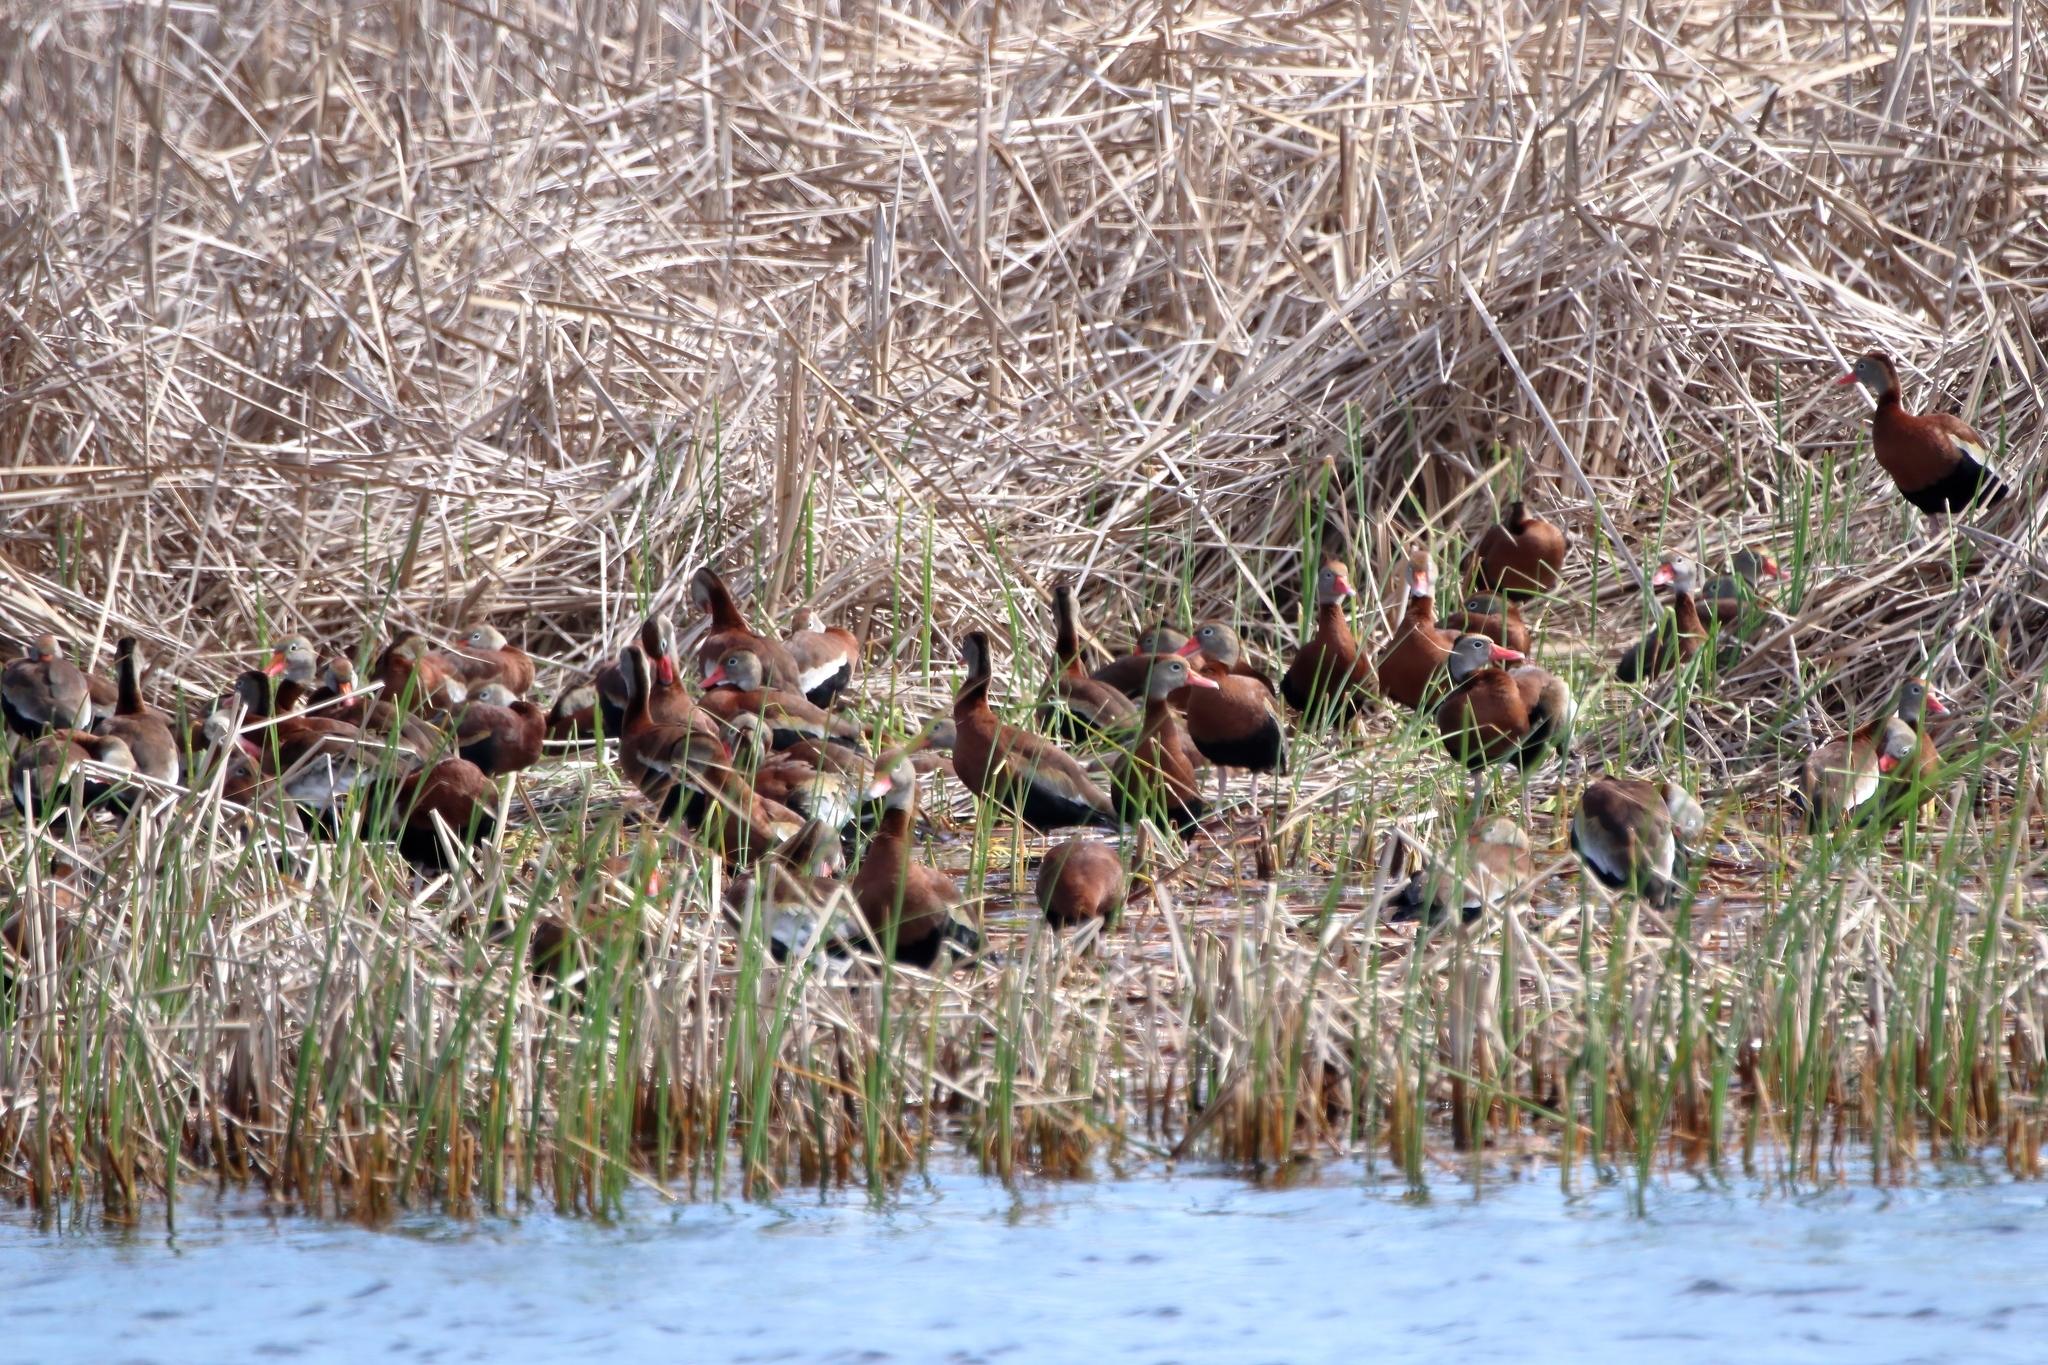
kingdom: Animalia
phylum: Chordata
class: Aves
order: Anseriformes
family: Anatidae
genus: Dendrocygna
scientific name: Dendrocygna autumnalis
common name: Black-bellied whistling duck
